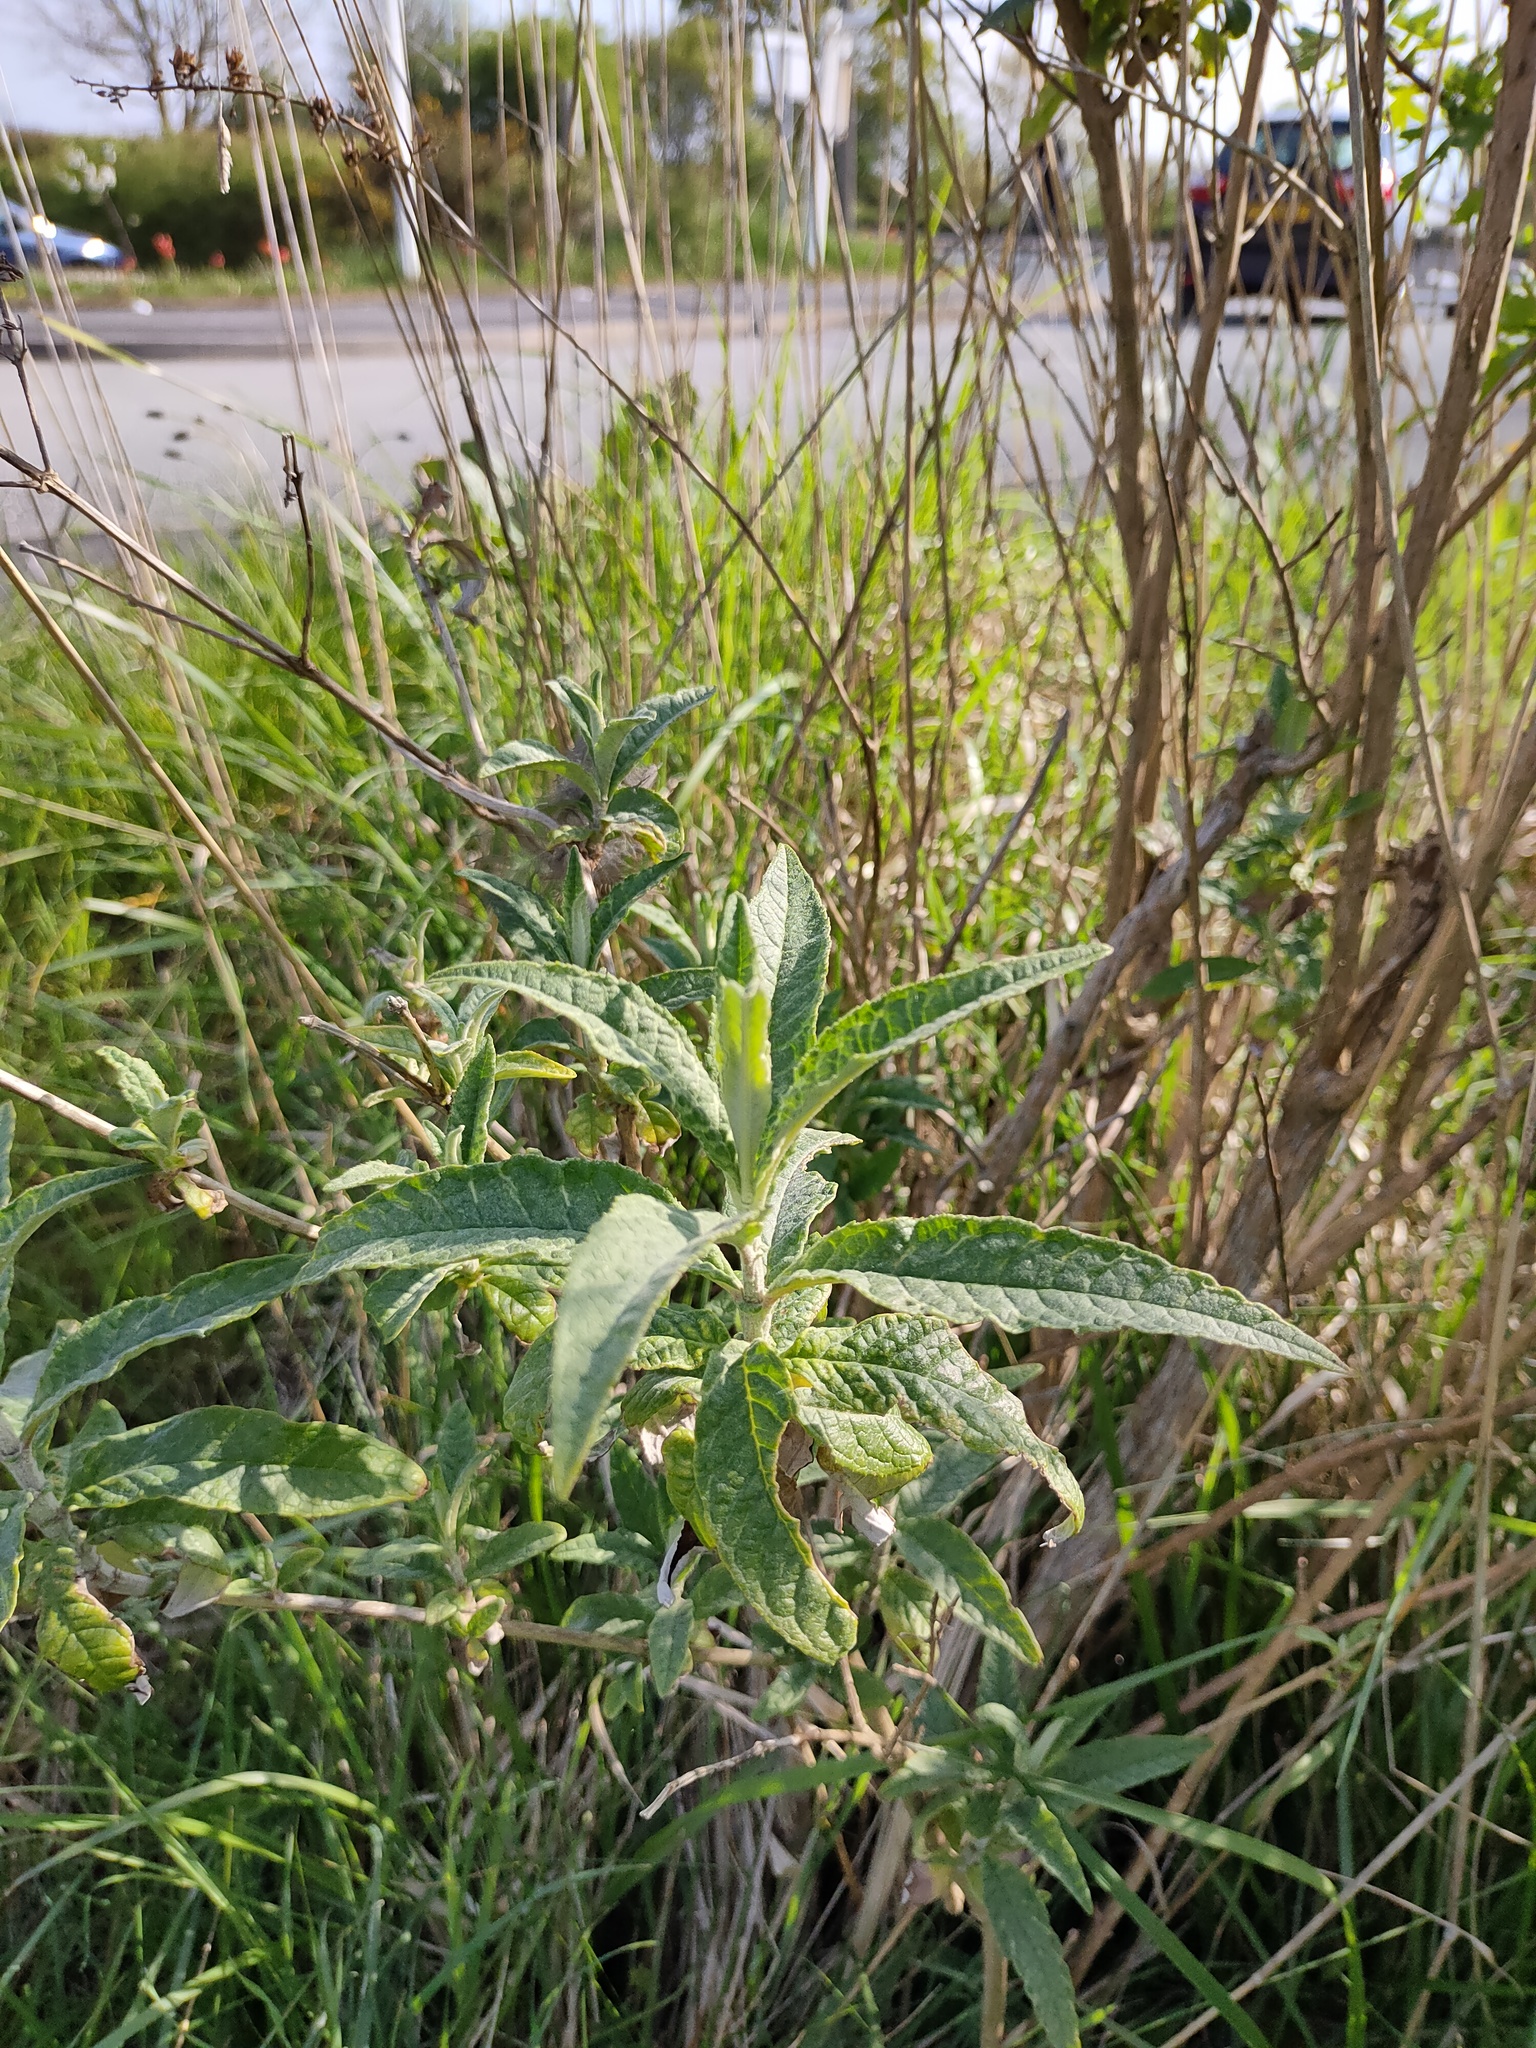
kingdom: Plantae
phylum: Tracheophyta
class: Magnoliopsida
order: Lamiales
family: Scrophulariaceae
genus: Buddleja
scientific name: Buddleja davidii
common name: Butterfly-bush
